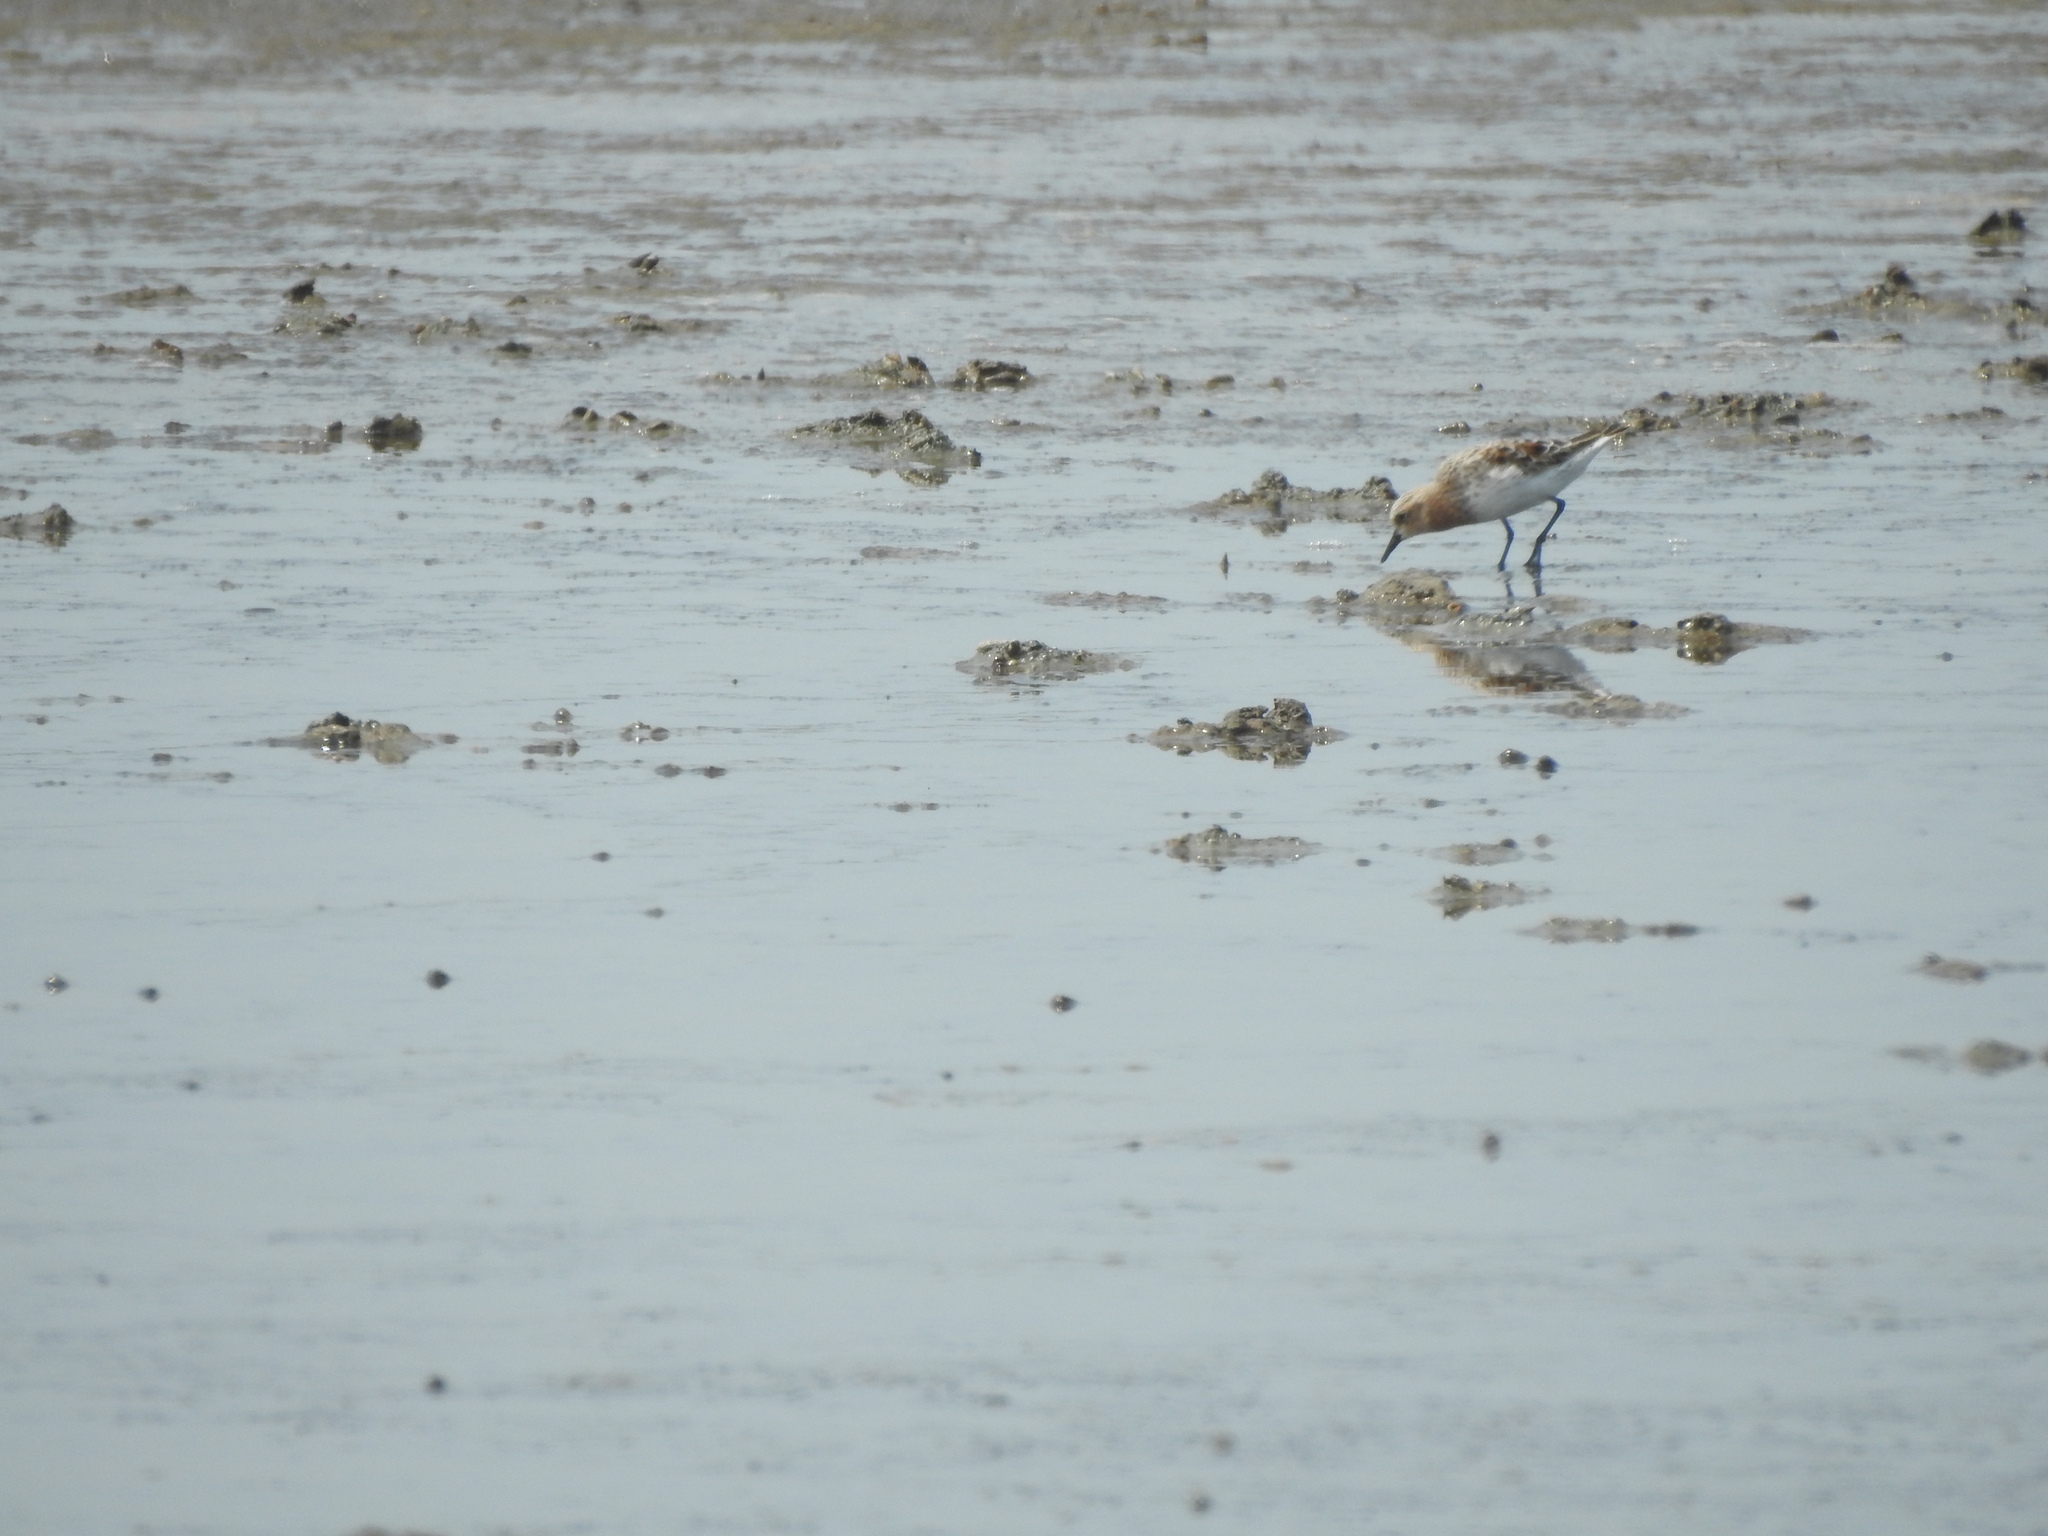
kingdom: Animalia
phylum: Chordata
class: Aves
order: Charadriiformes
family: Scolopacidae
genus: Calidris
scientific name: Calidris ruficollis
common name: Red-necked stint
